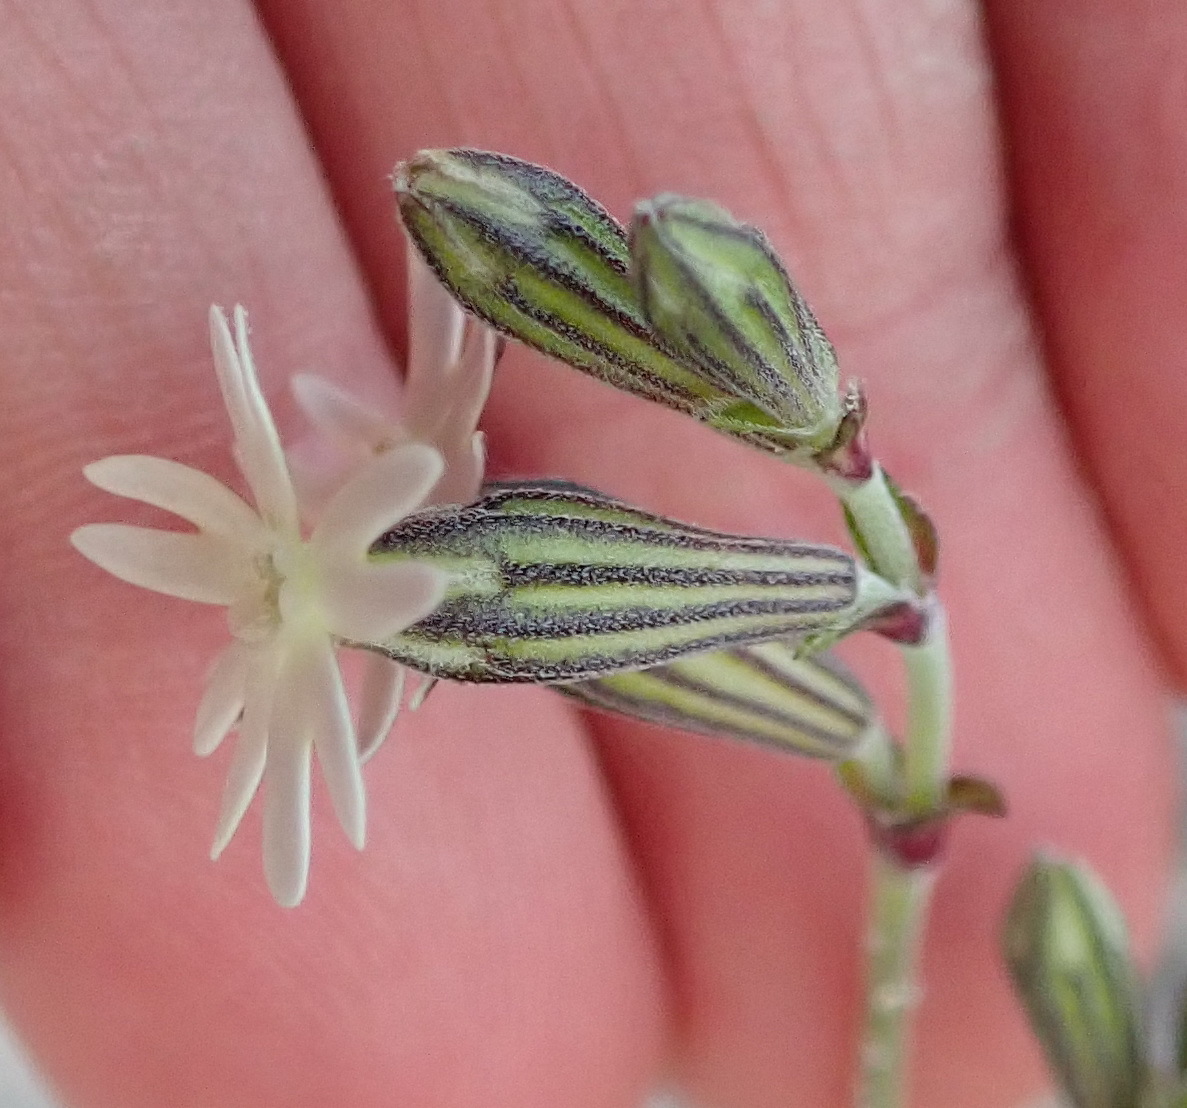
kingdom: Plantae
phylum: Tracheophyta
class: Magnoliopsida
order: Caryophyllales
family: Caryophyllaceae
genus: Silene
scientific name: Silene aethiopica
